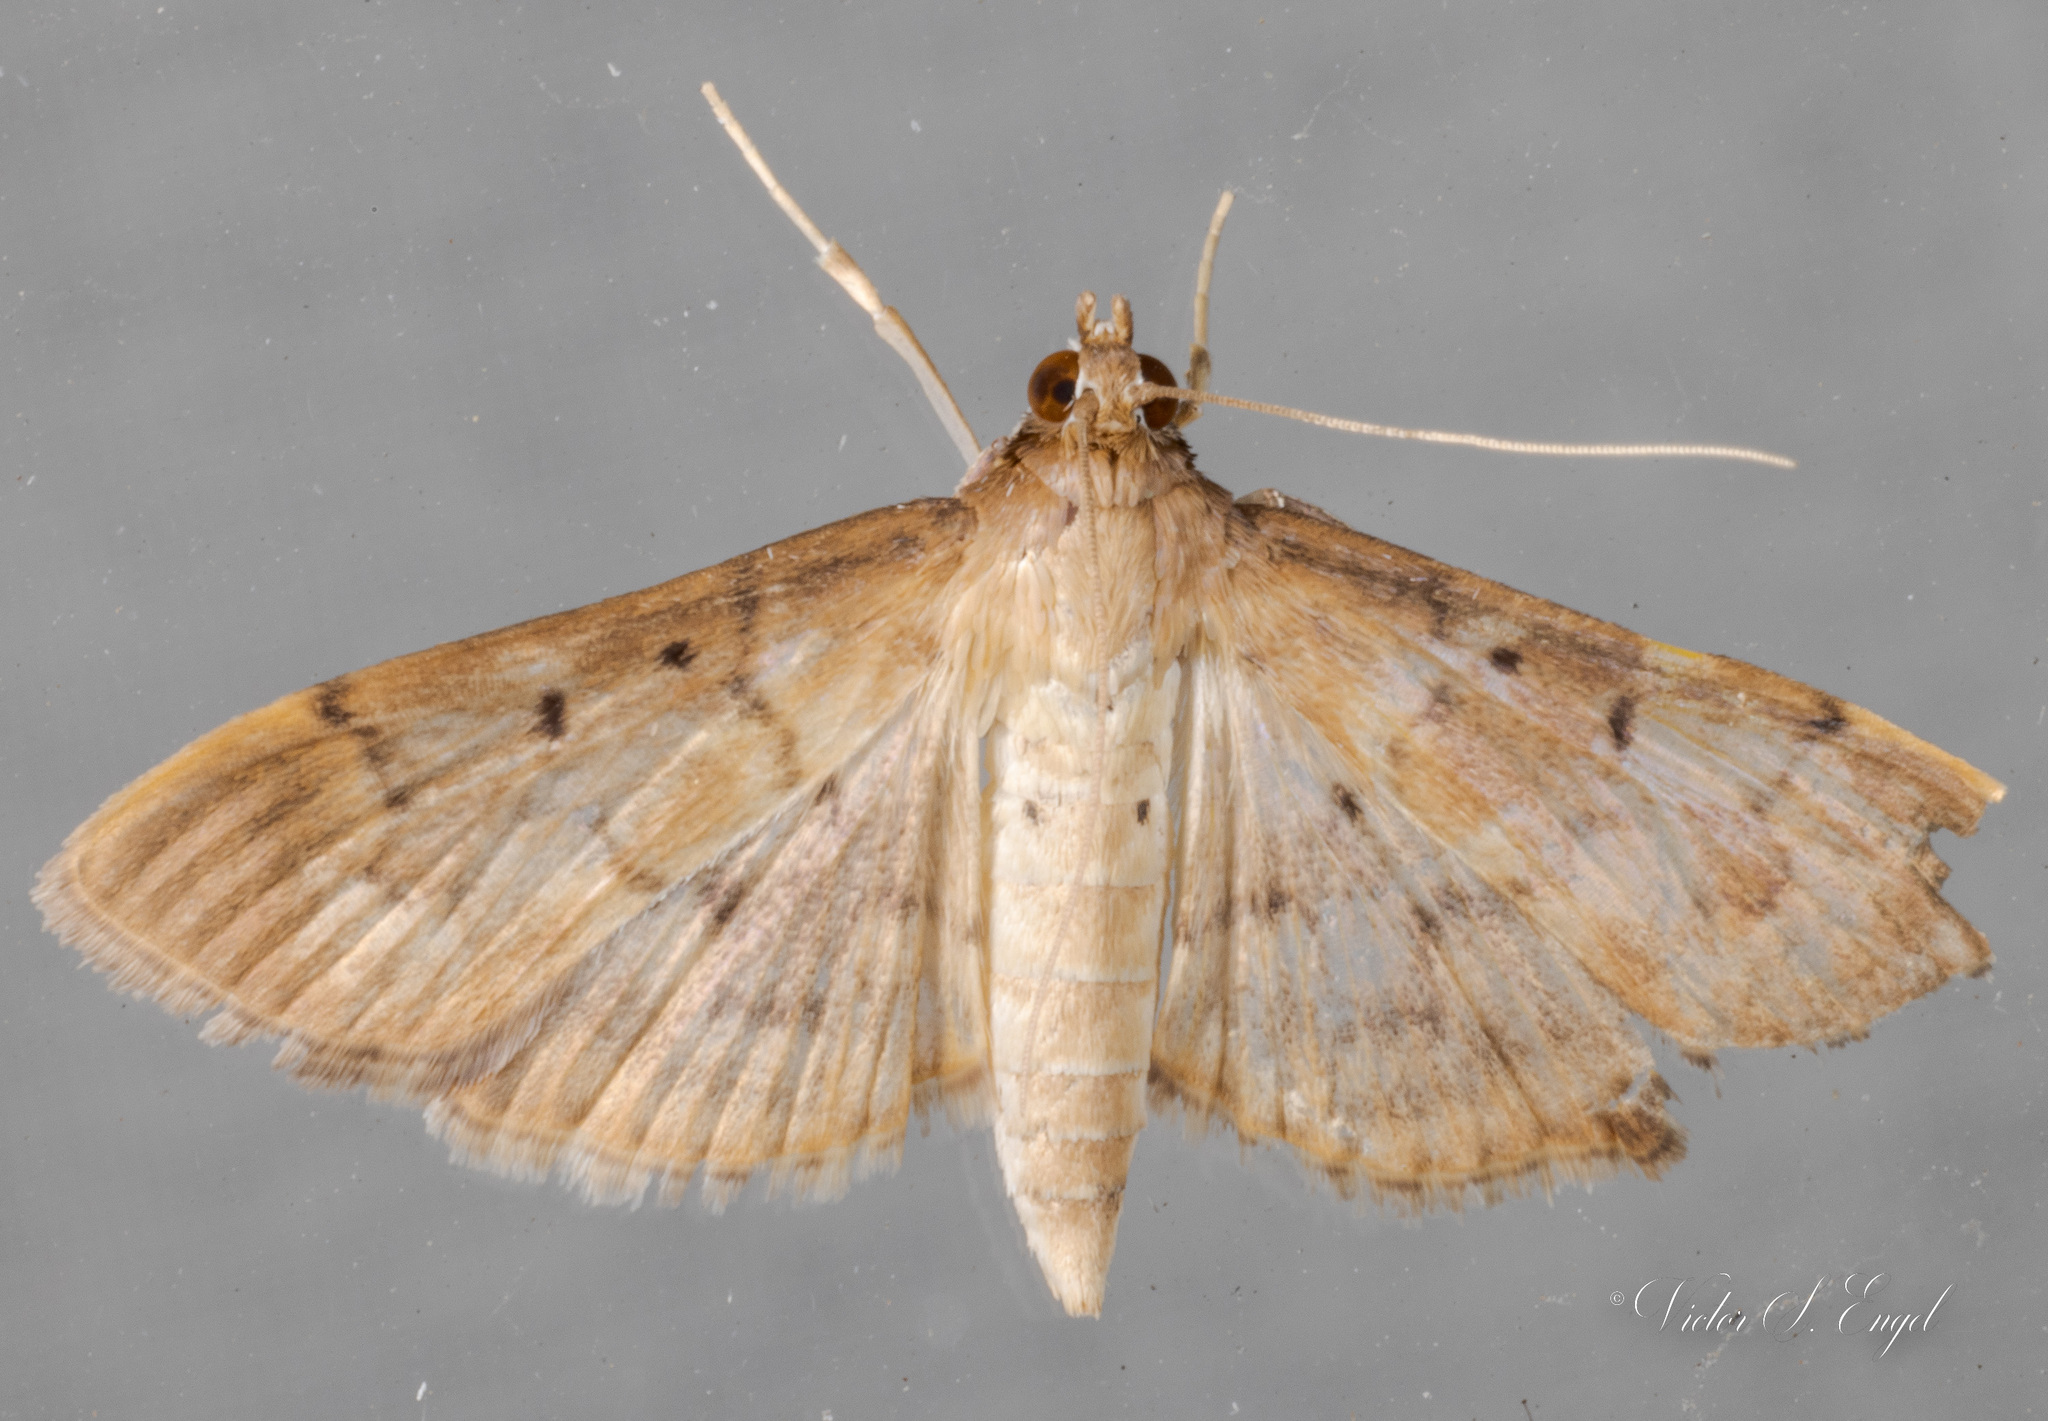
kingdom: Animalia
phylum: Arthropoda
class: Insecta
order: Lepidoptera
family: Crambidae
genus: Herpetogramma
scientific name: Herpetogramma bipunctalis
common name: Southern beet webworm
